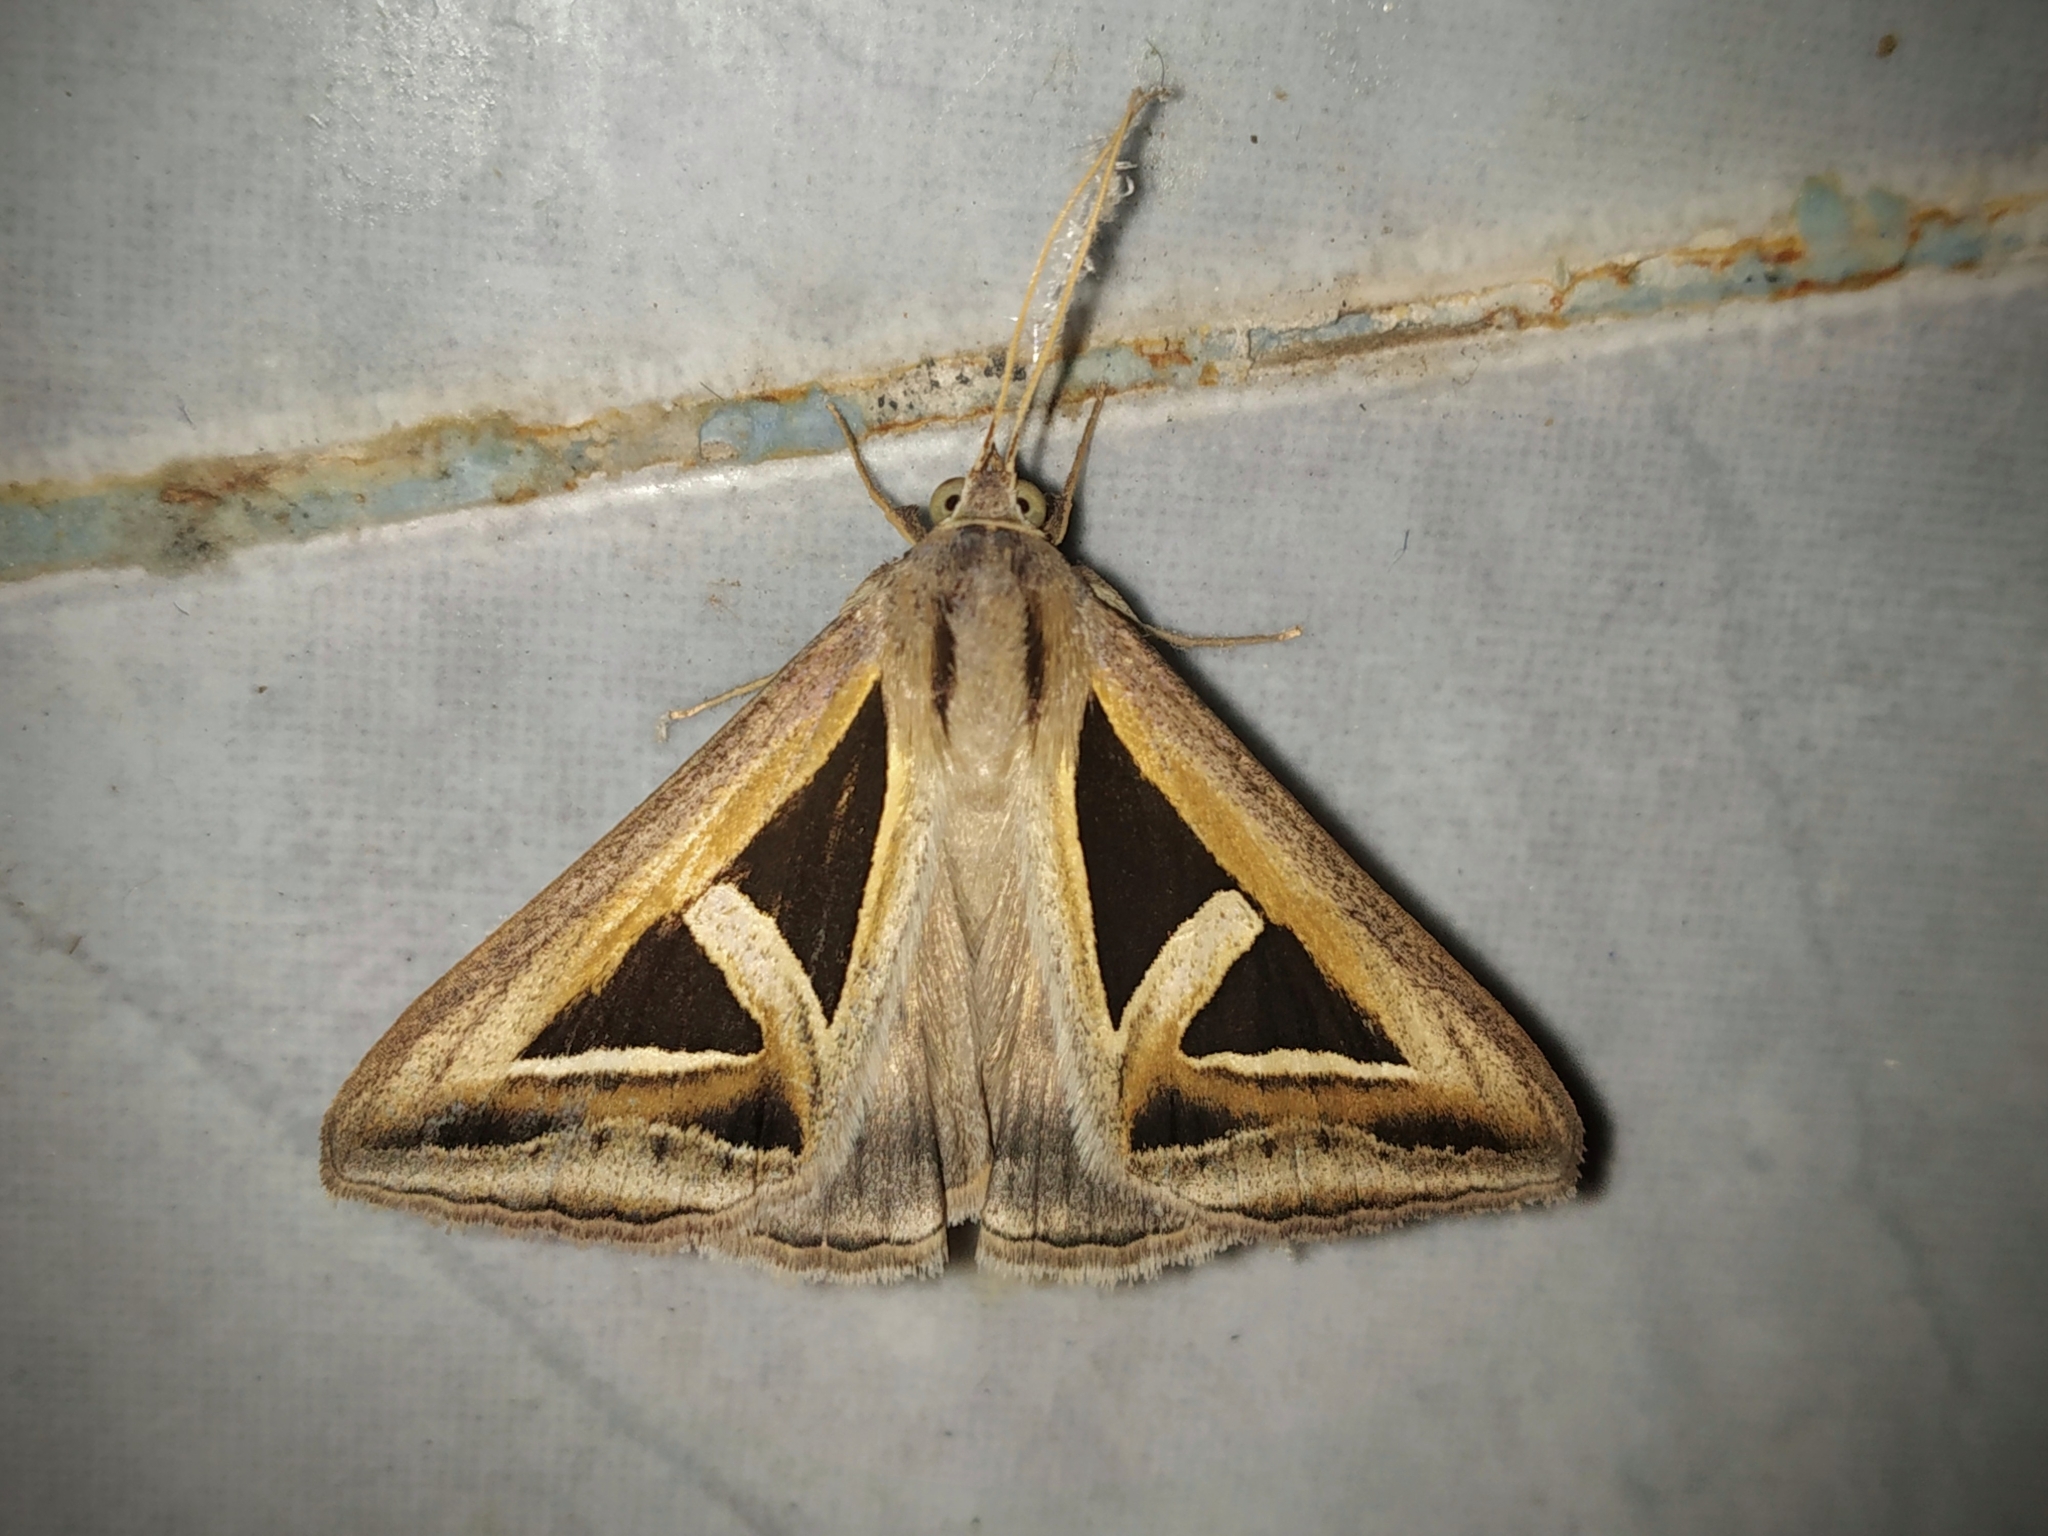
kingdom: Animalia
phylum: Arthropoda
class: Insecta
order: Lepidoptera
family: Erebidae
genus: Trigonodes
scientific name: Trigonodes hyppasia
